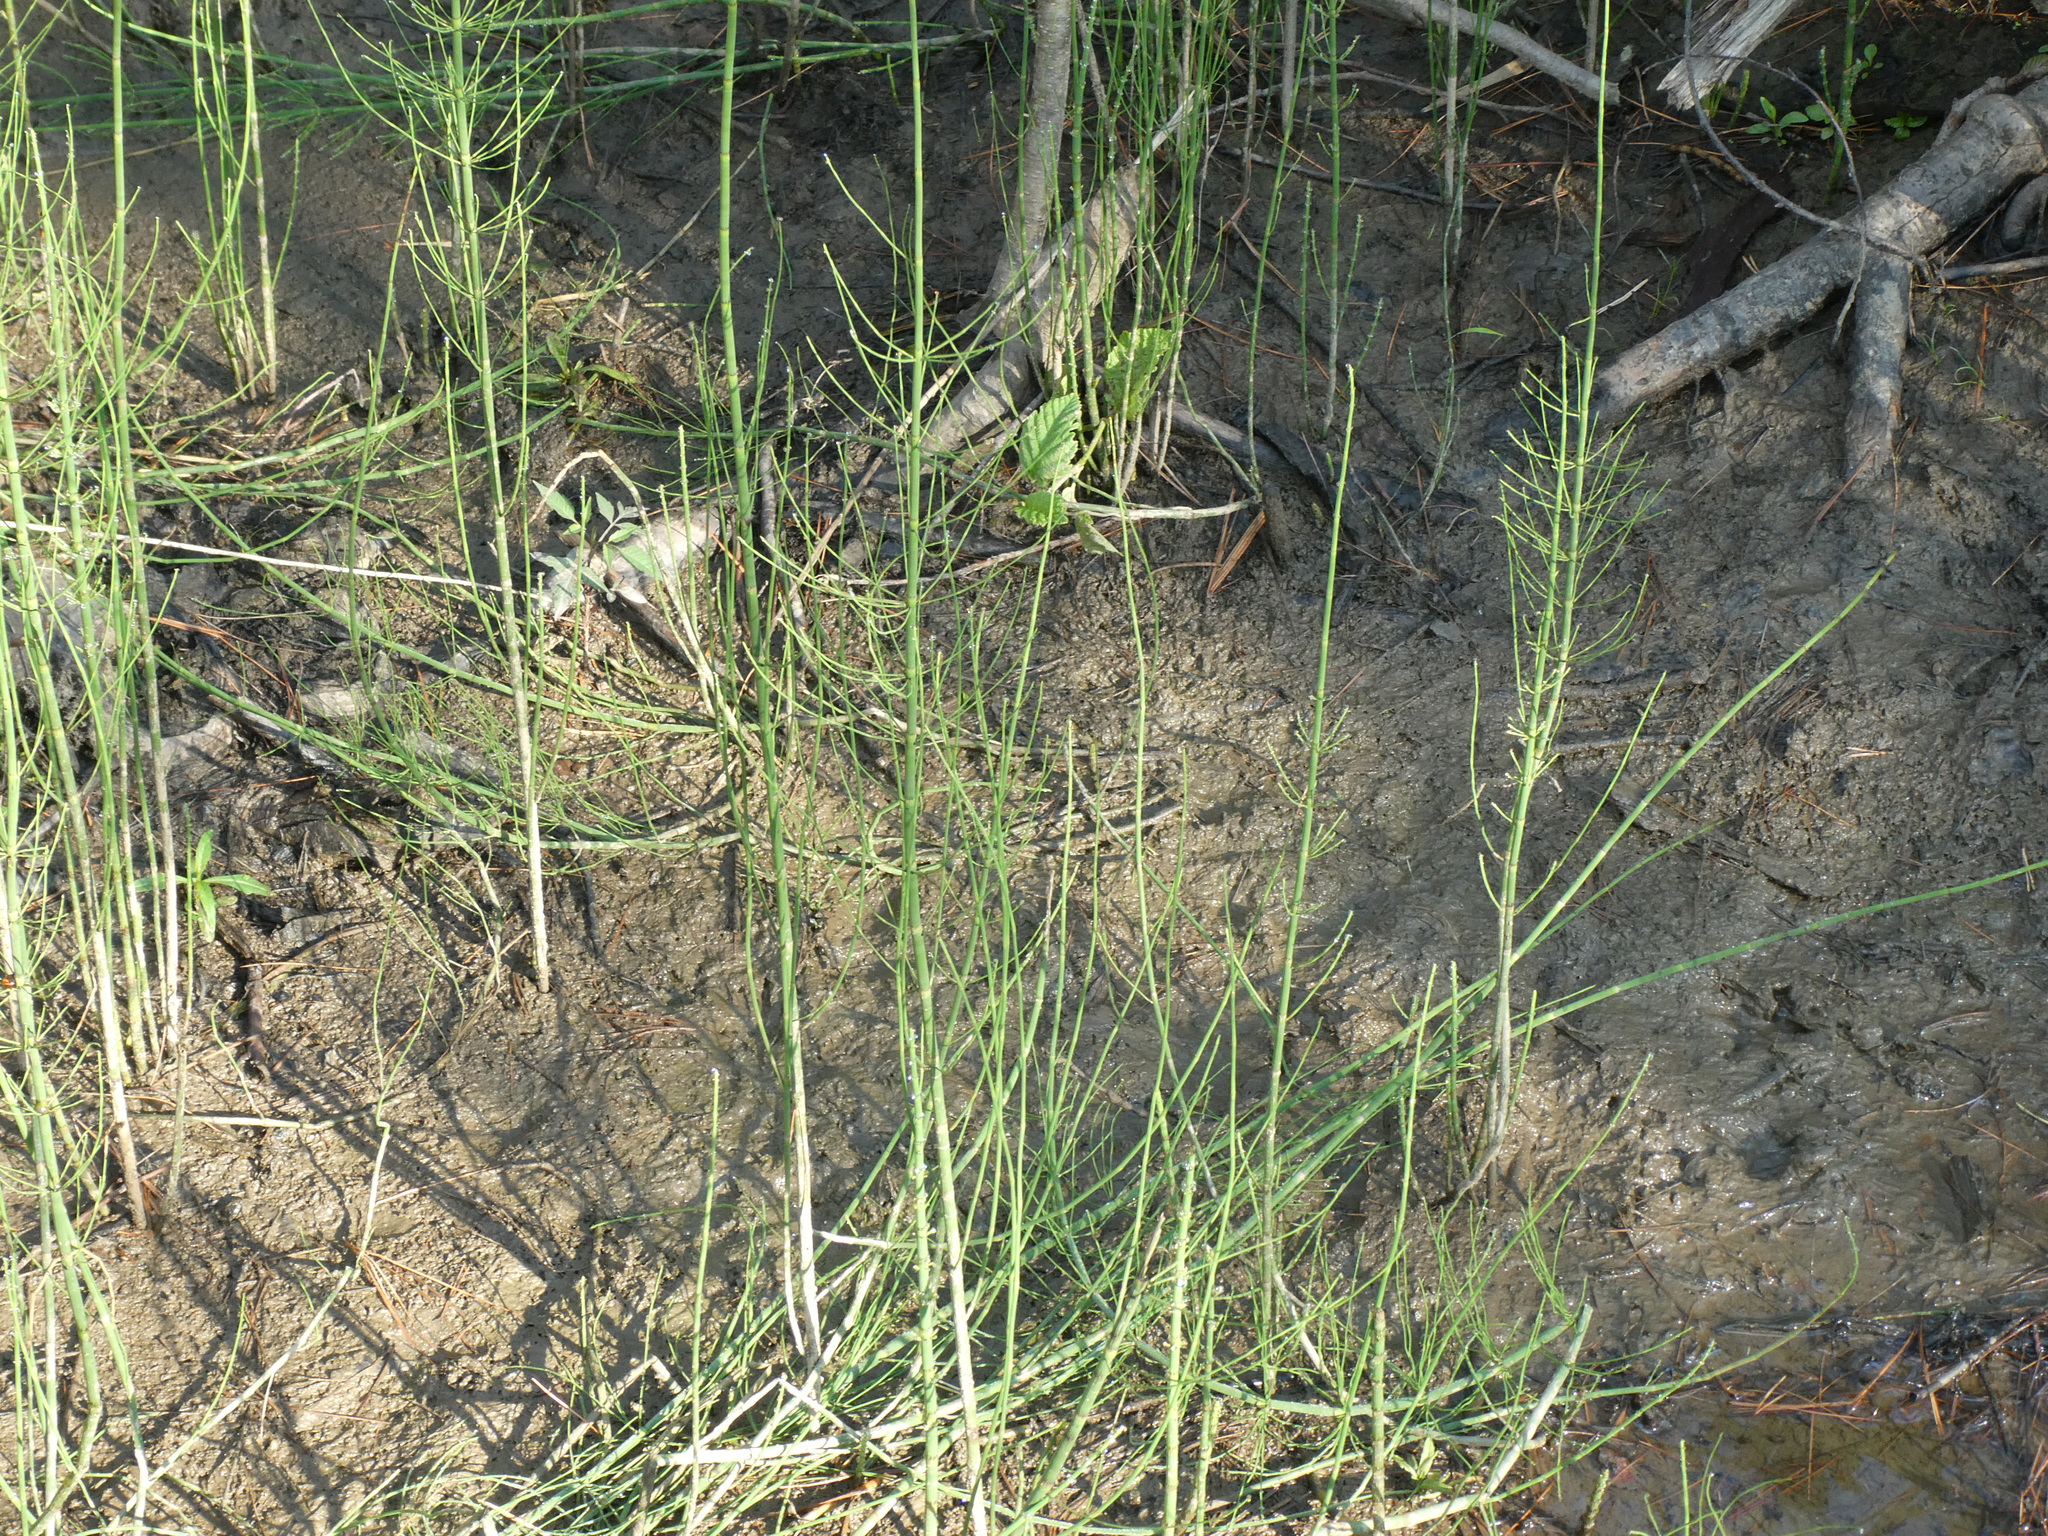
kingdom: Plantae
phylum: Tracheophyta
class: Polypodiopsida
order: Equisetales
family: Equisetaceae
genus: Equisetum
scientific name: Equisetum fluviatile
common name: Water horsetail
